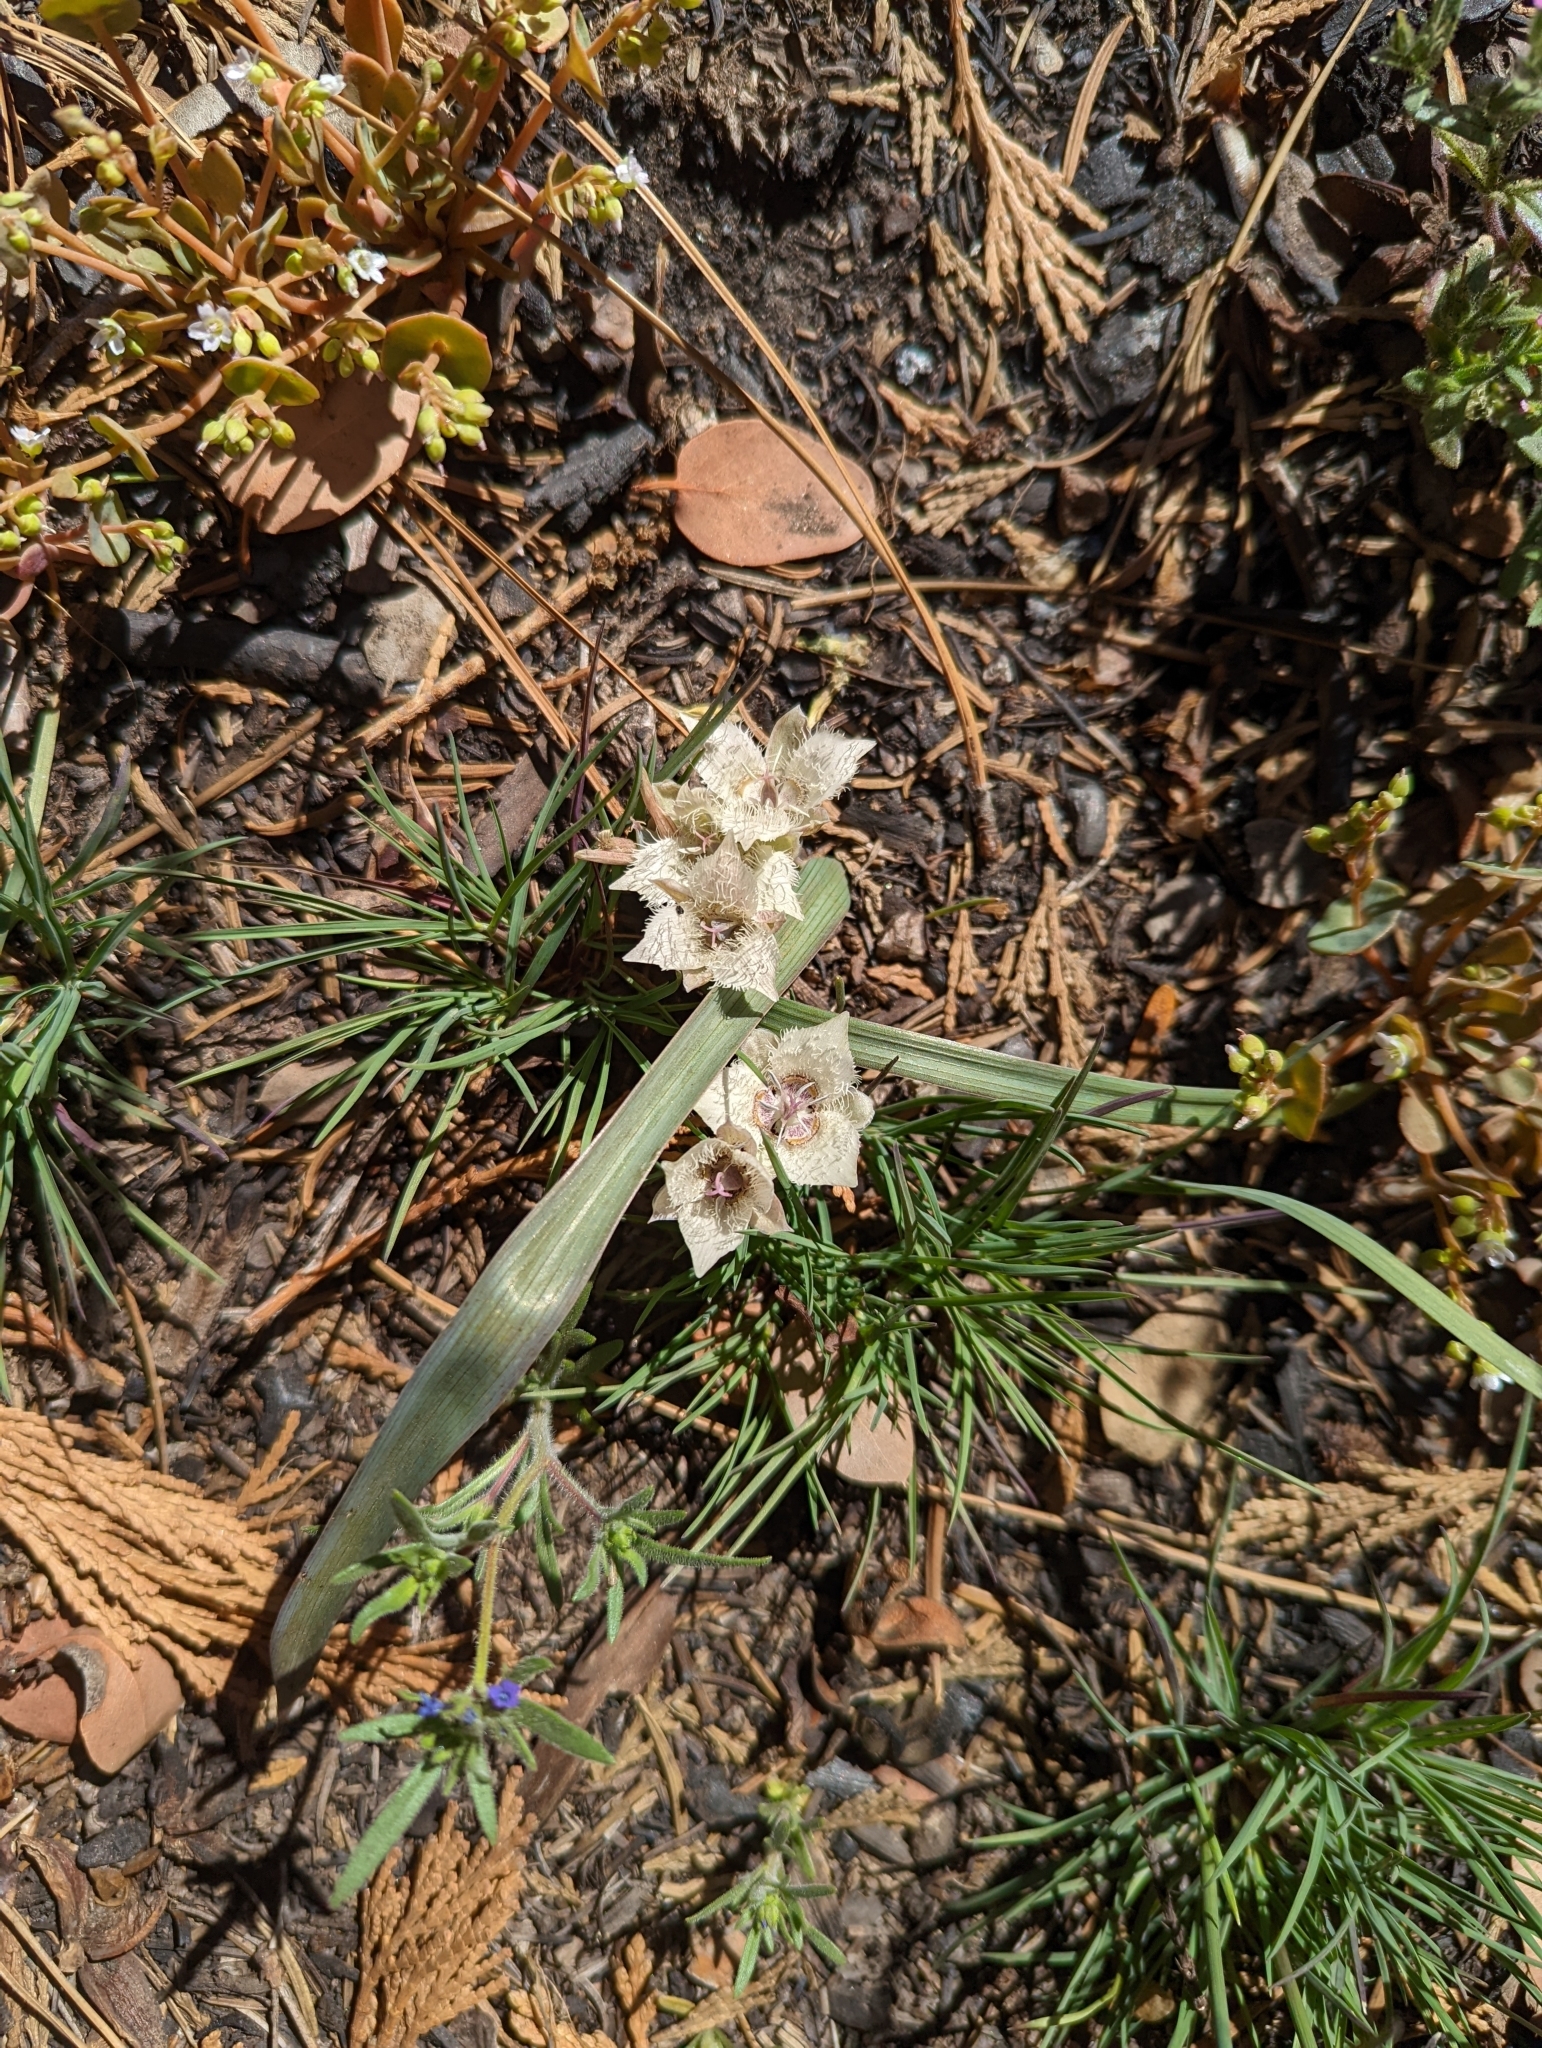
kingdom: Plantae
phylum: Tracheophyta
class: Liliopsida
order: Liliales
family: Liliaceae
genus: Calochortus
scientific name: Calochortus westonii
